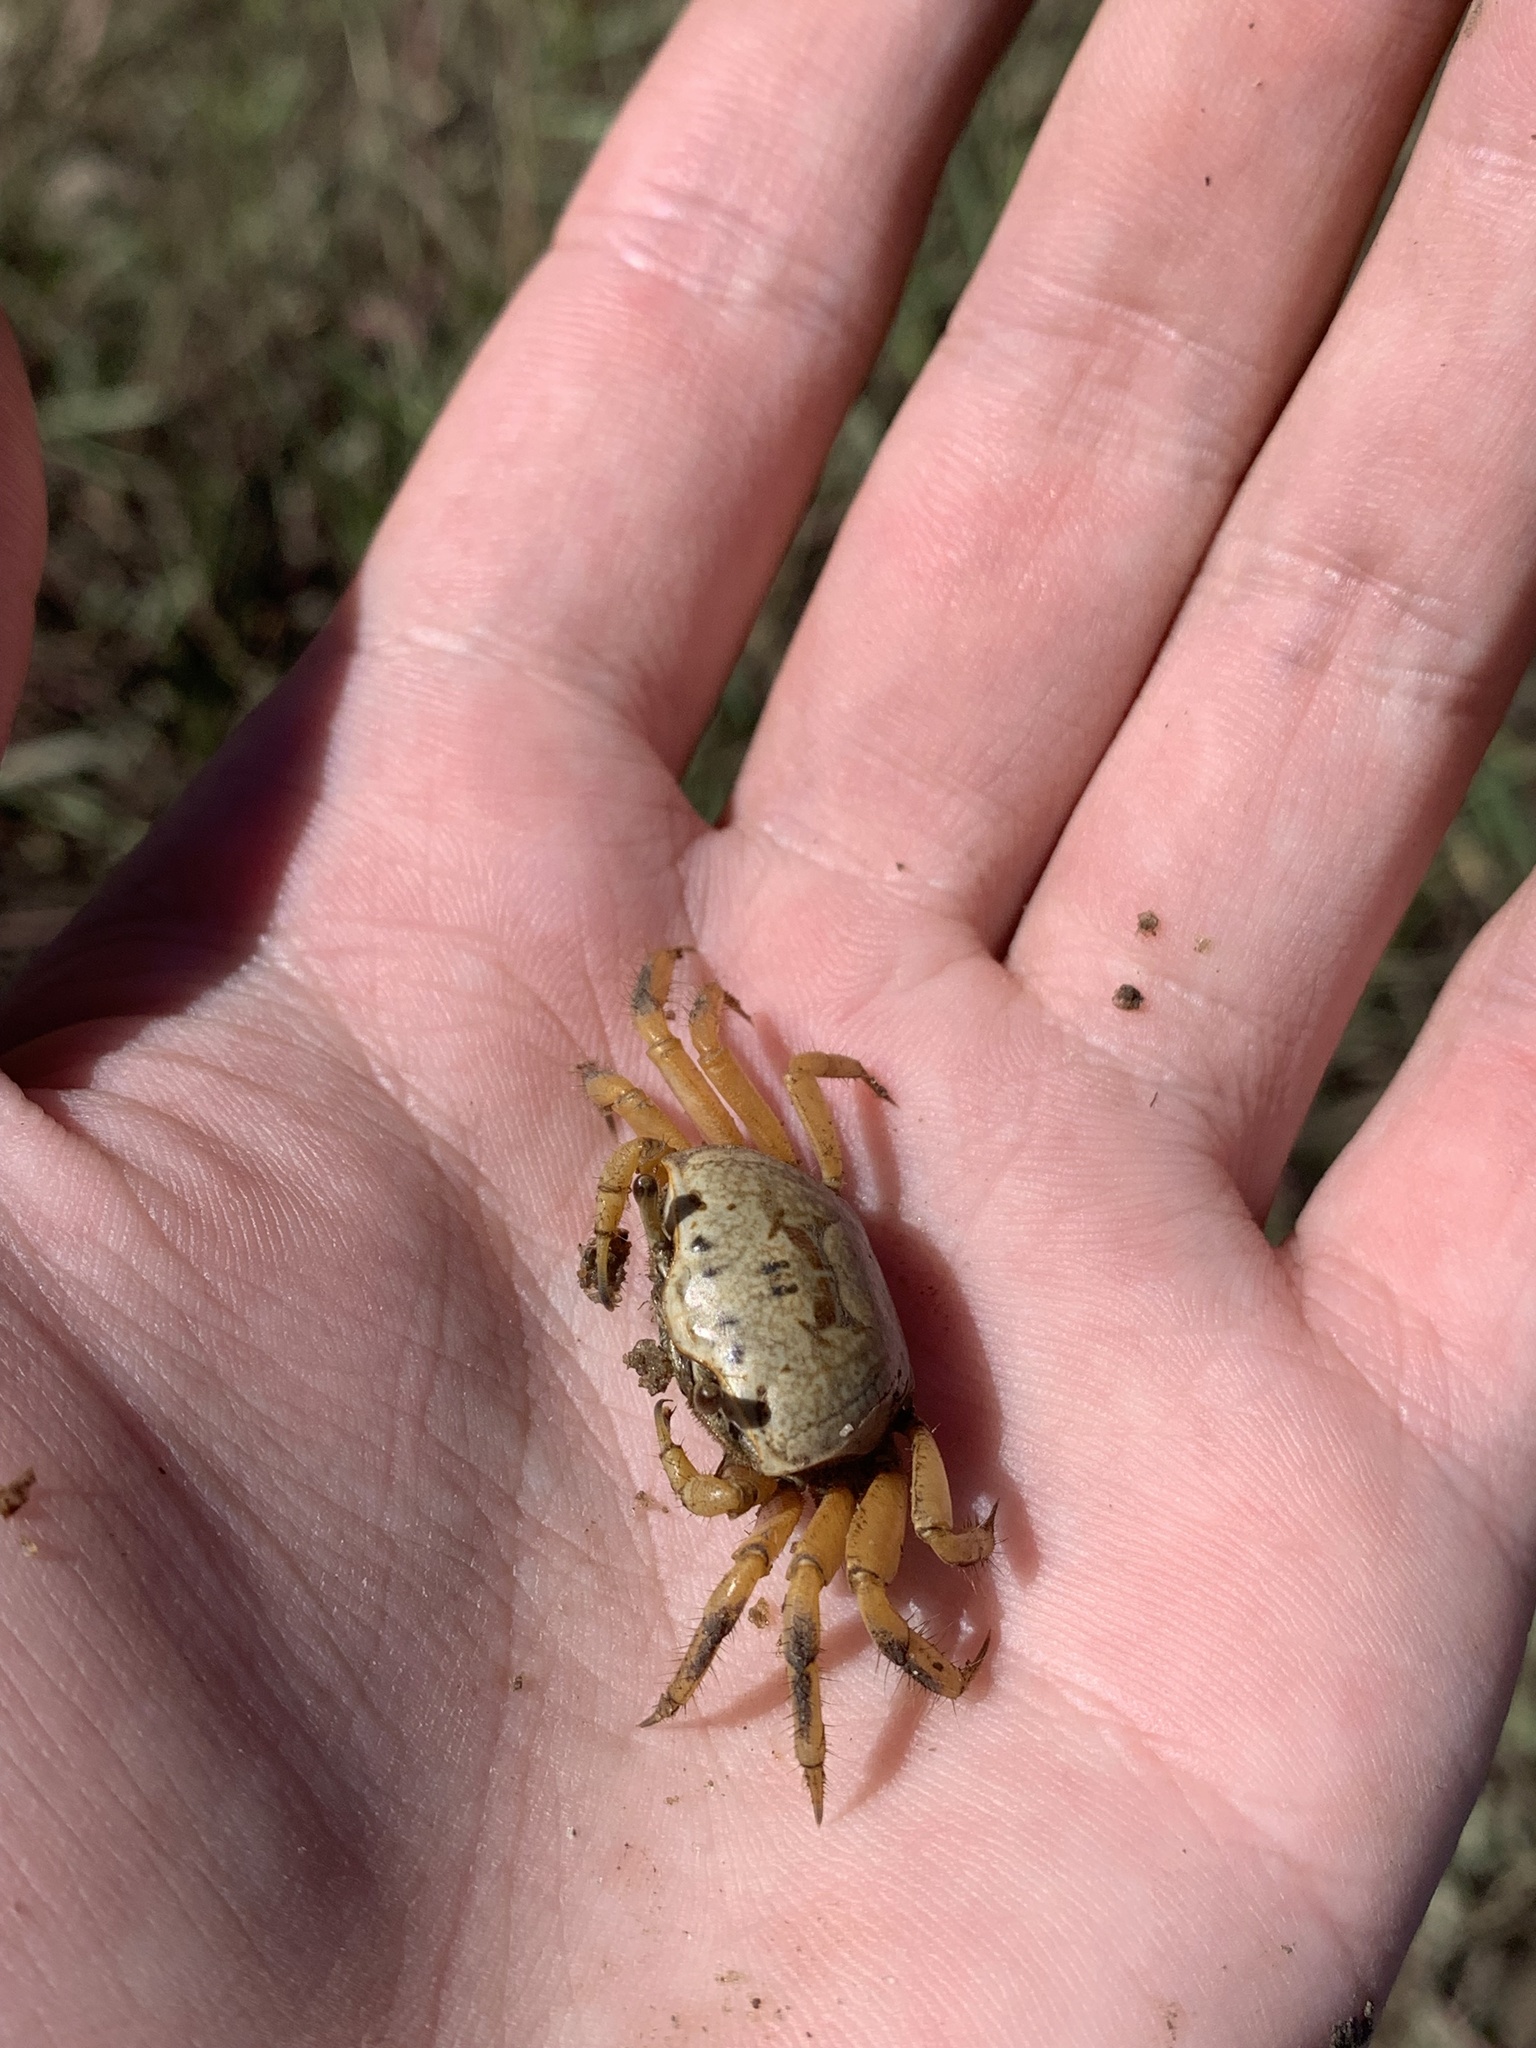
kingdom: Animalia
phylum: Arthropoda
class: Malacostraca
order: Decapoda
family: Ocypodidae
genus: Minuca
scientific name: Minuca rapax
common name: Rapacious fiddler crab
